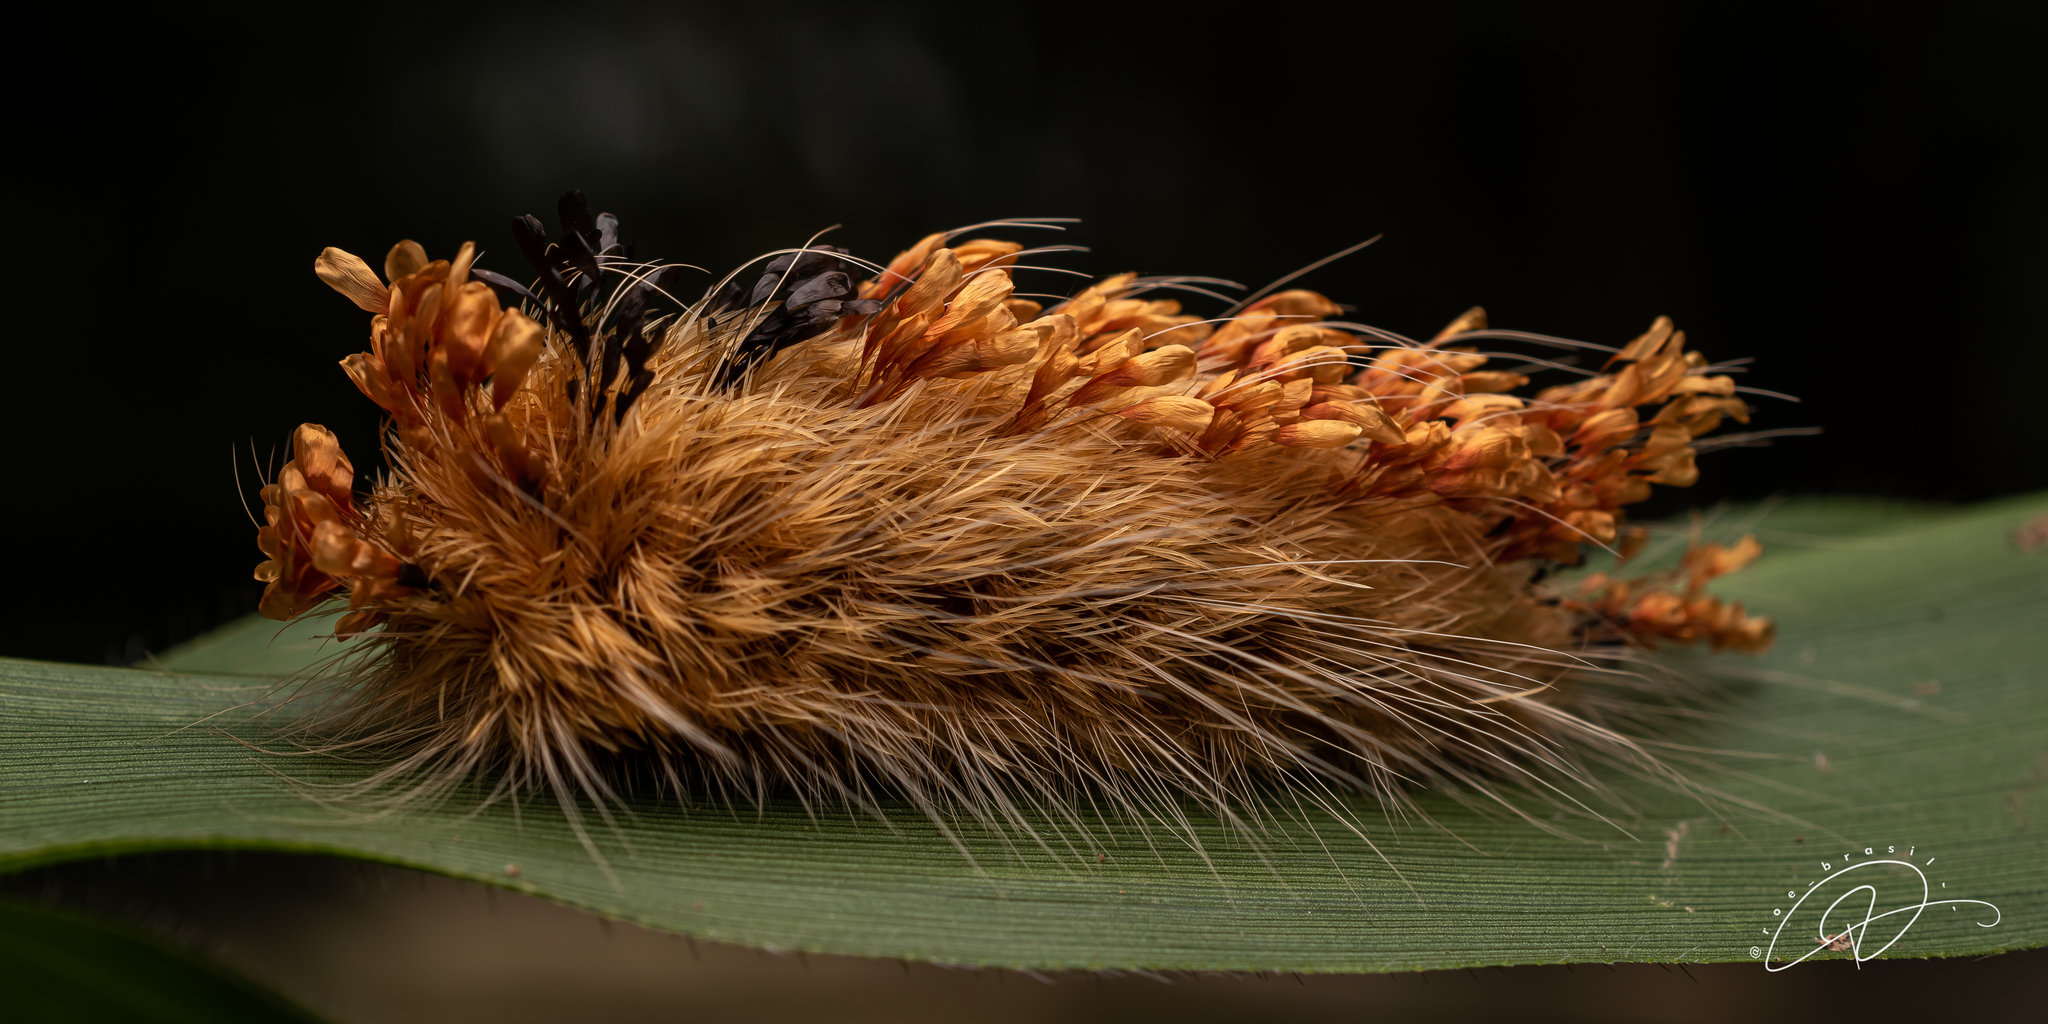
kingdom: Animalia
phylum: Arthropoda
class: Insecta
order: Lepidoptera
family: Bombycidae
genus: Prothysana
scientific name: Prothysana terminalis
